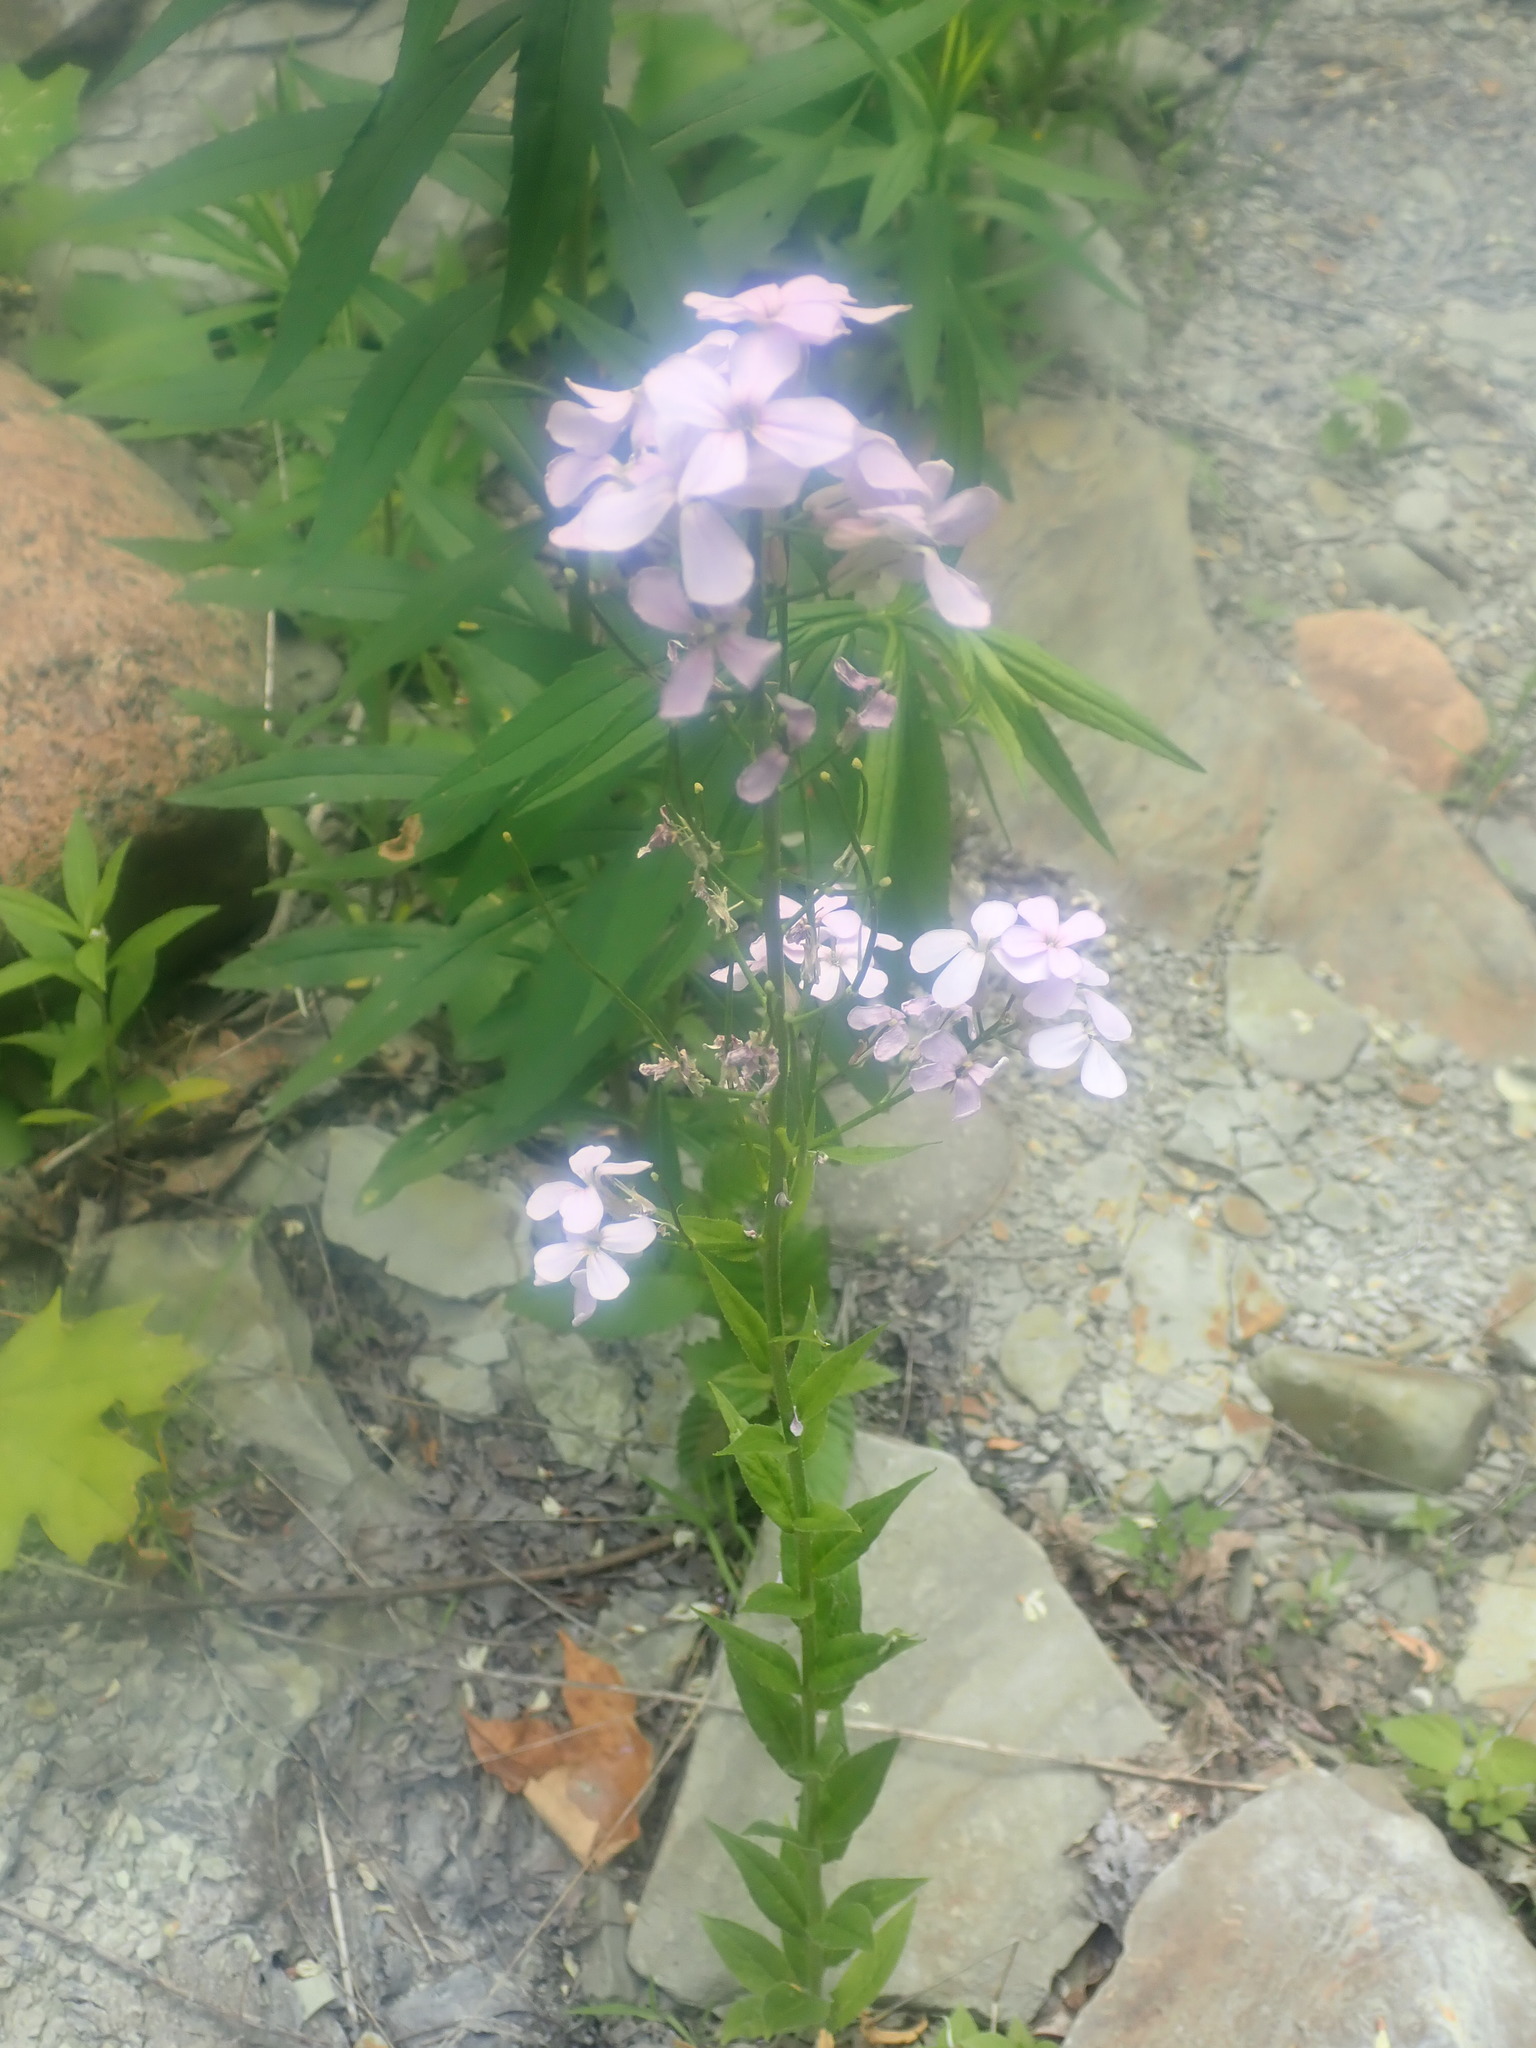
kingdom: Plantae
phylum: Tracheophyta
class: Magnoliopsida
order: Brassicales
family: Brassicaceae
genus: Hesperis
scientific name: Hesperis matronalis
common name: Dame's-violet
